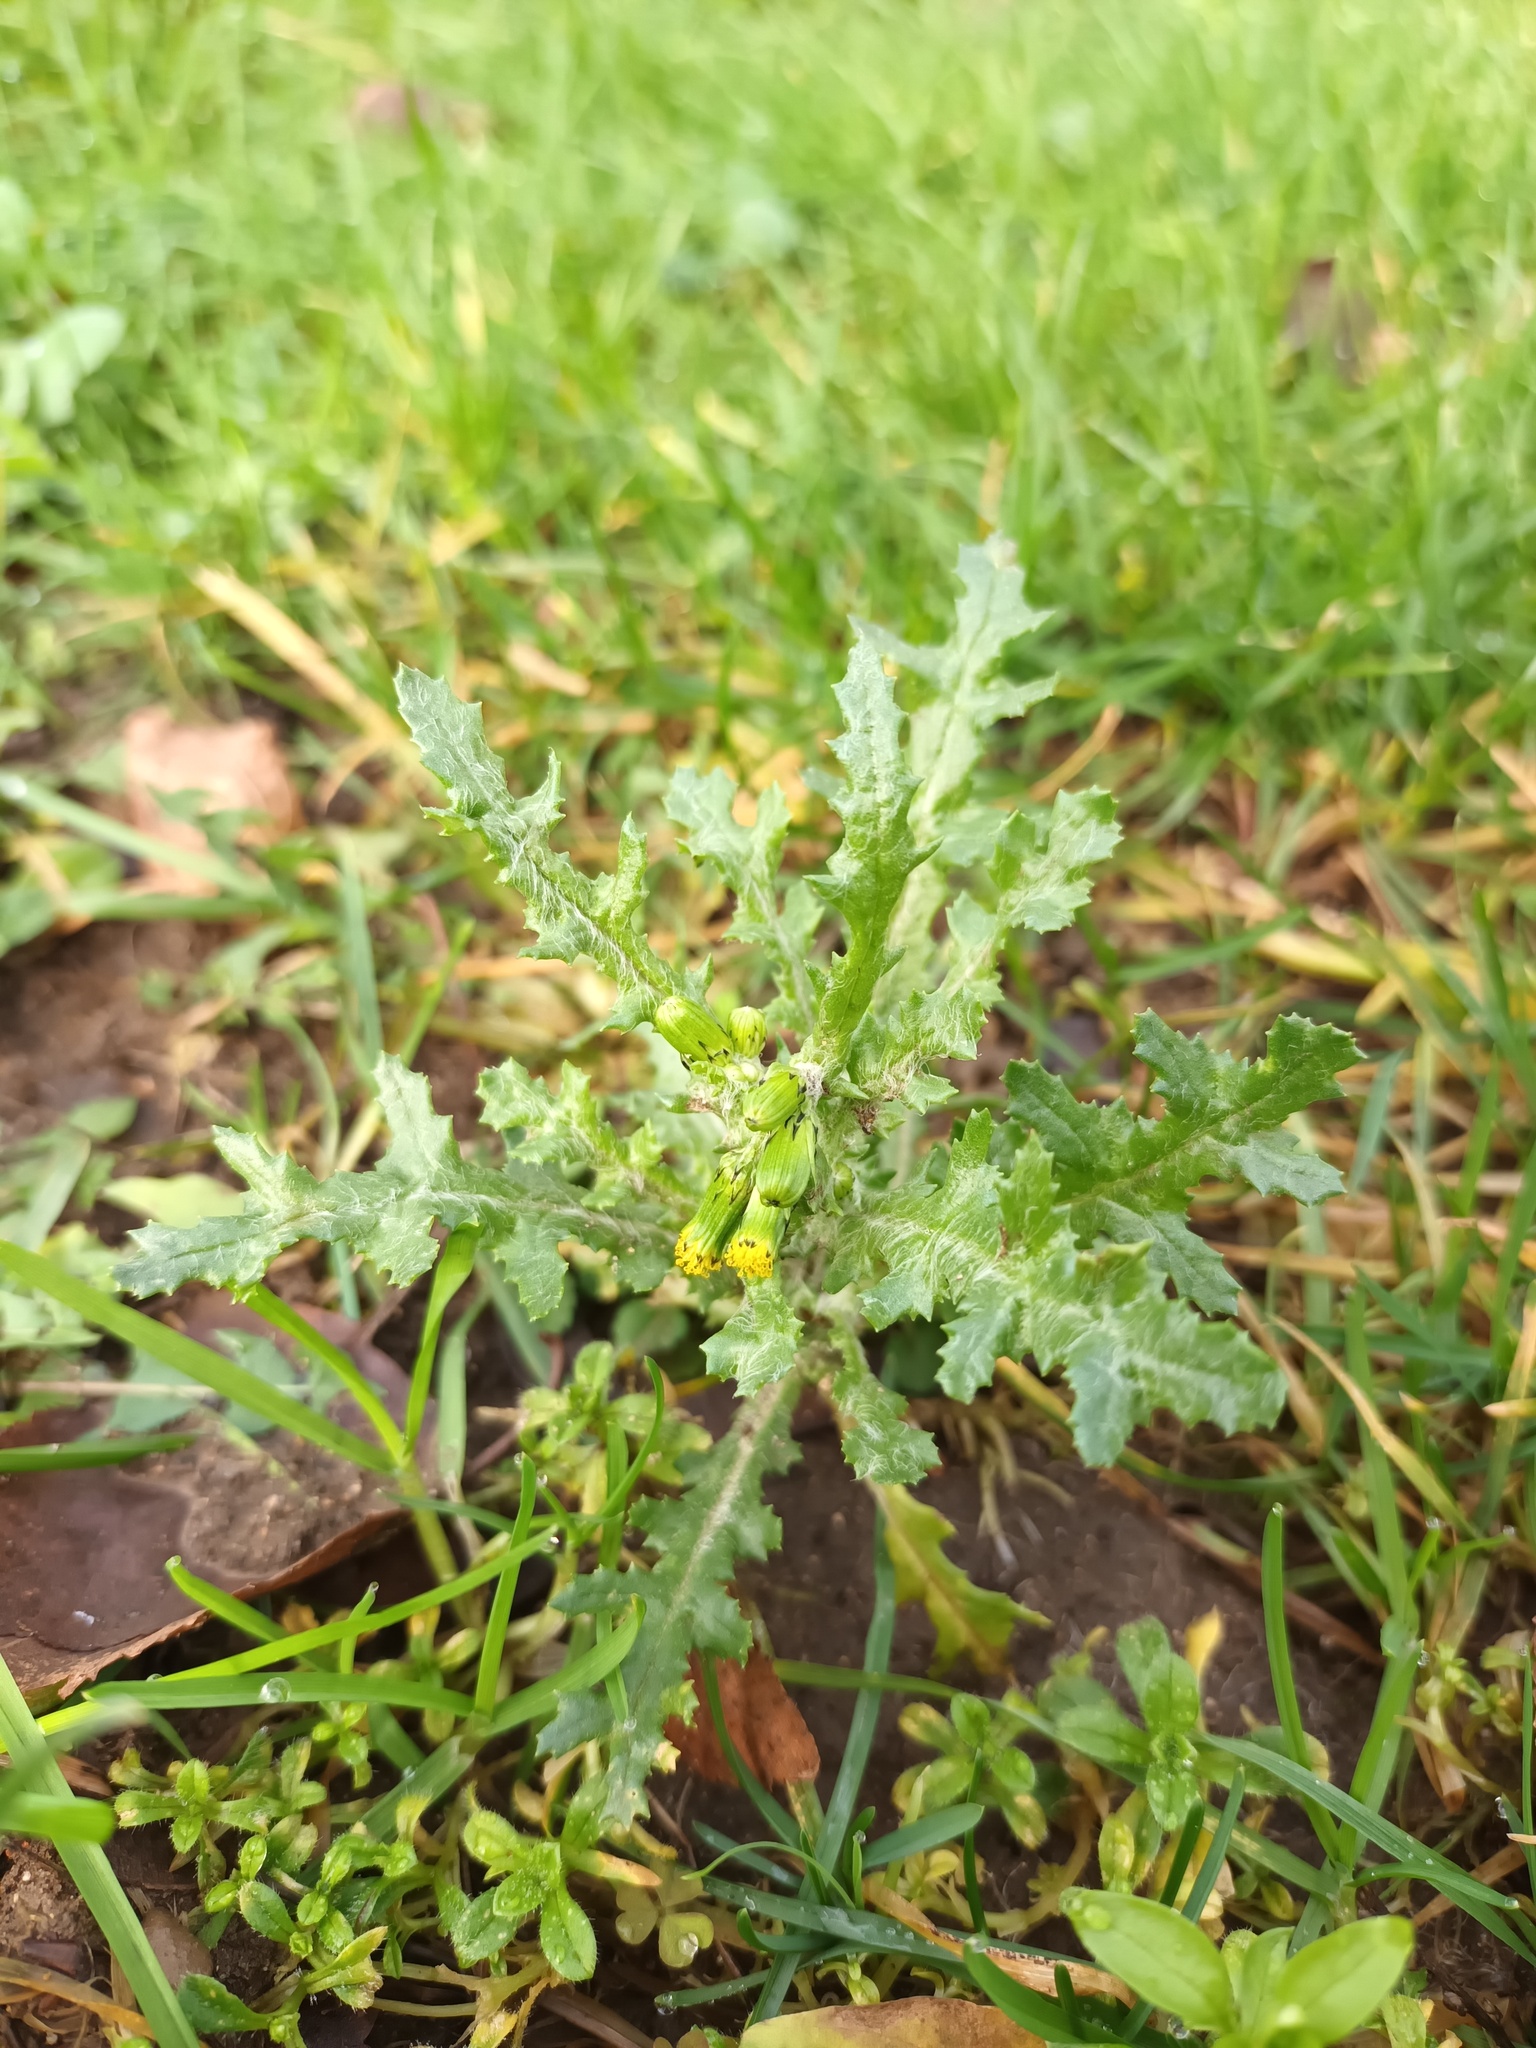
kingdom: Plantae
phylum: Tracheophyta
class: Magnoliopsida
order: Asterales
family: Asteraceae
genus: Senecio
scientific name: Senecio vulgaris
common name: Old-man-in-the-spring
